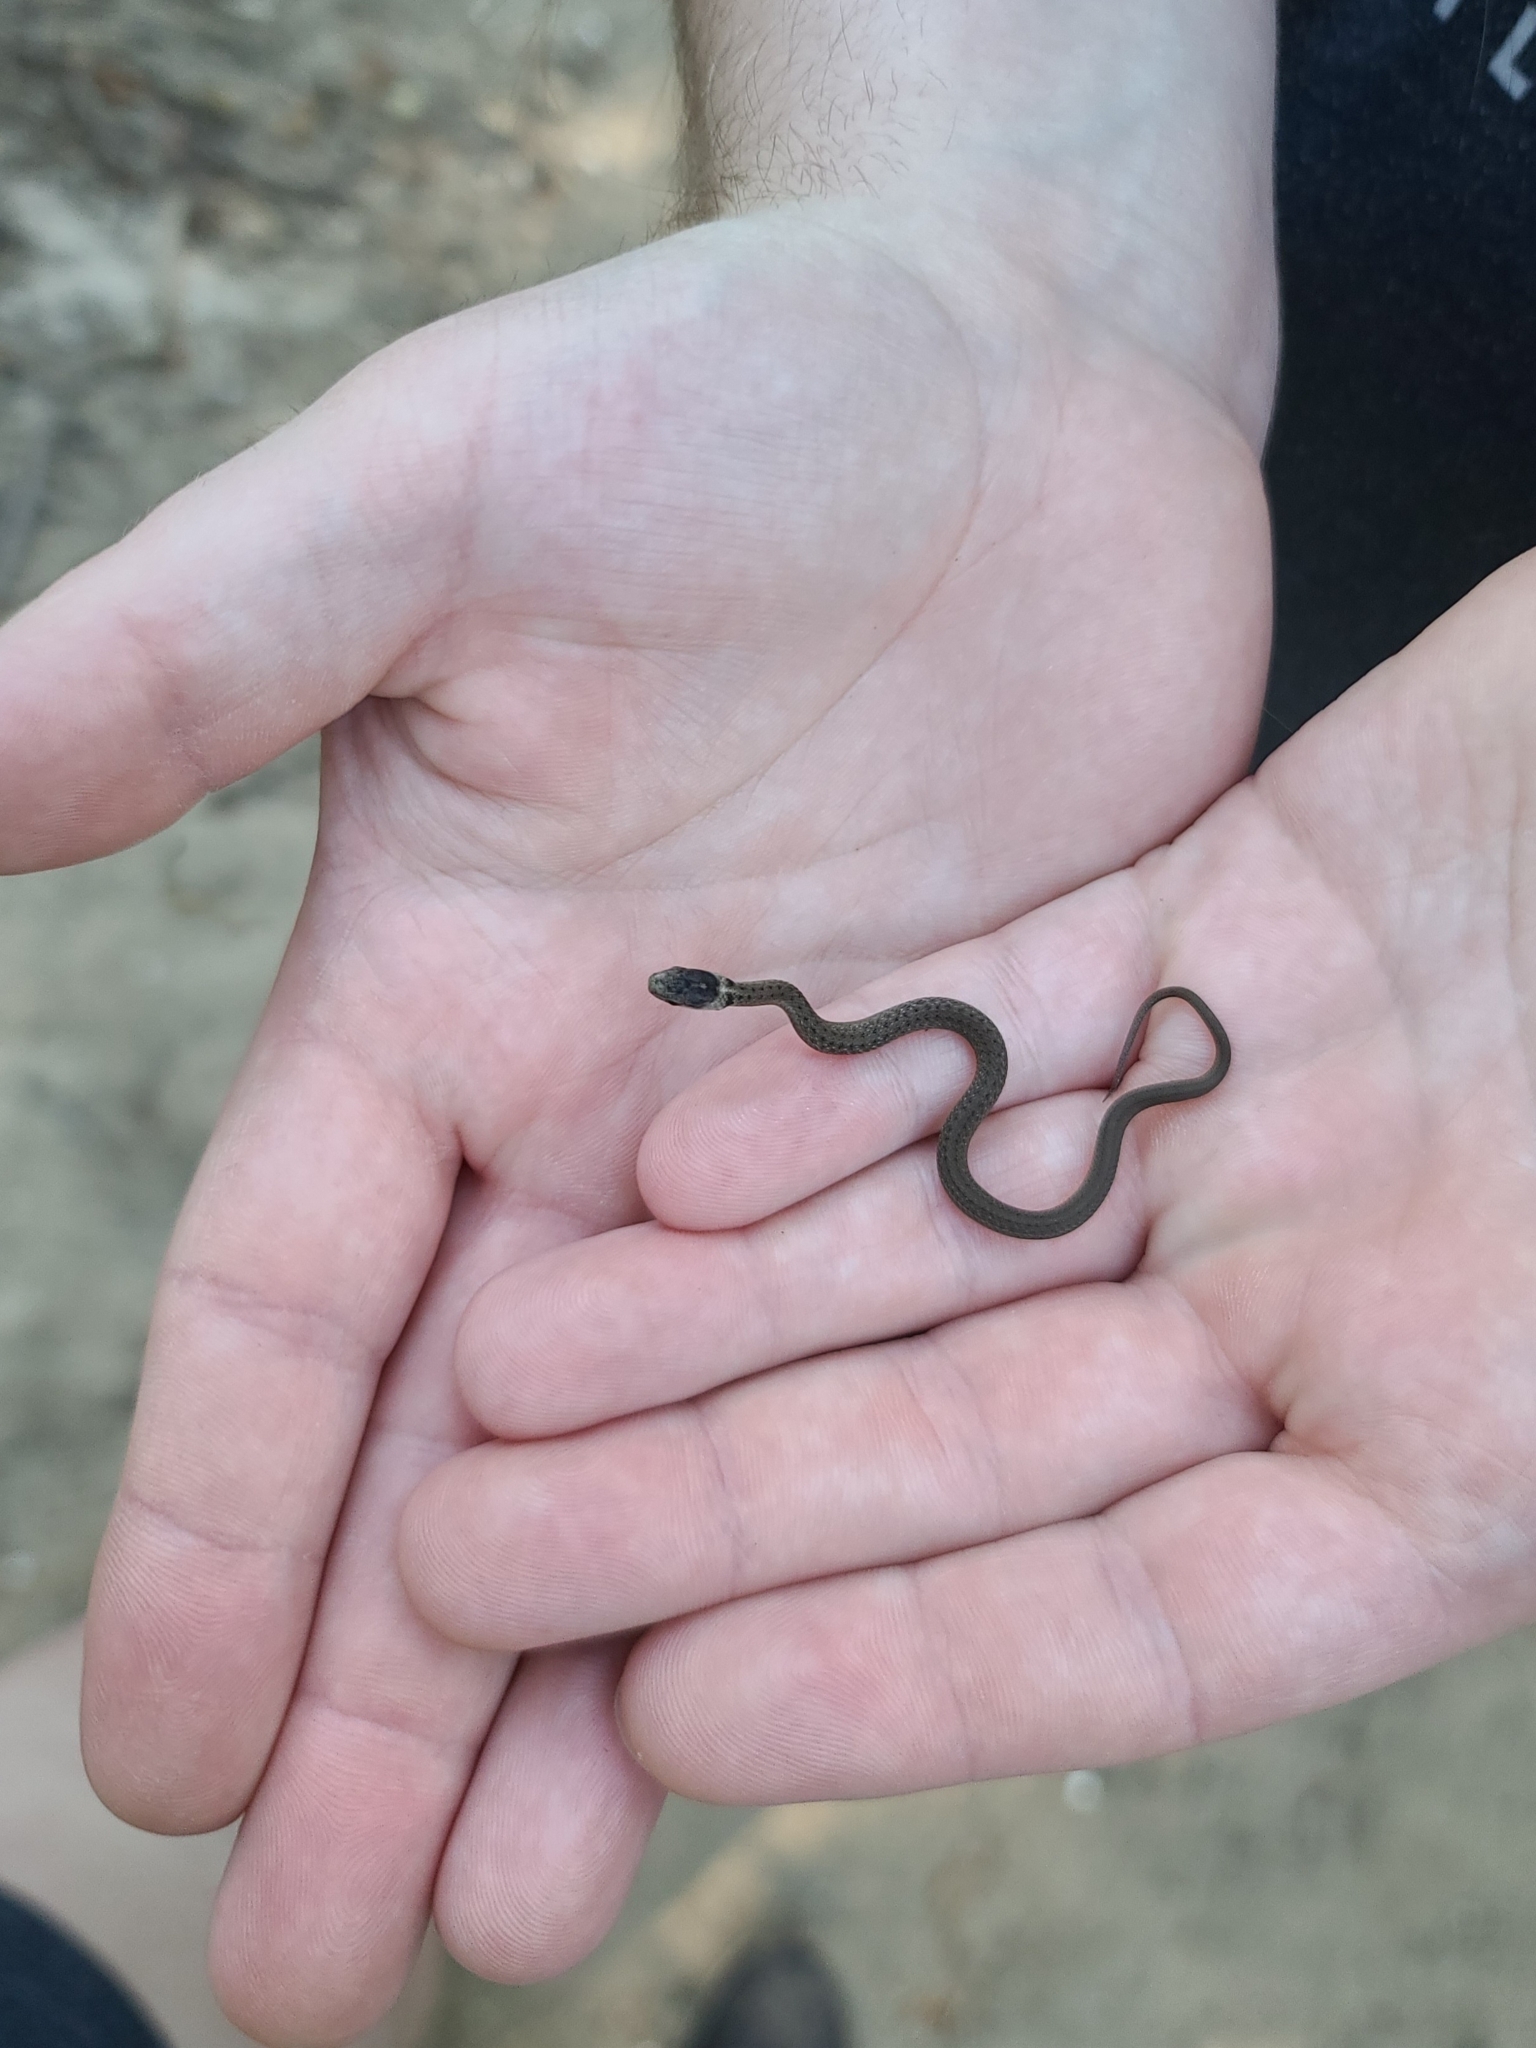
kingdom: Animalia
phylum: Chordata
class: Squamata
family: Colubridae
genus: Storeria
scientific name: Storeria dekayi
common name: (dekay’s) brown snake
